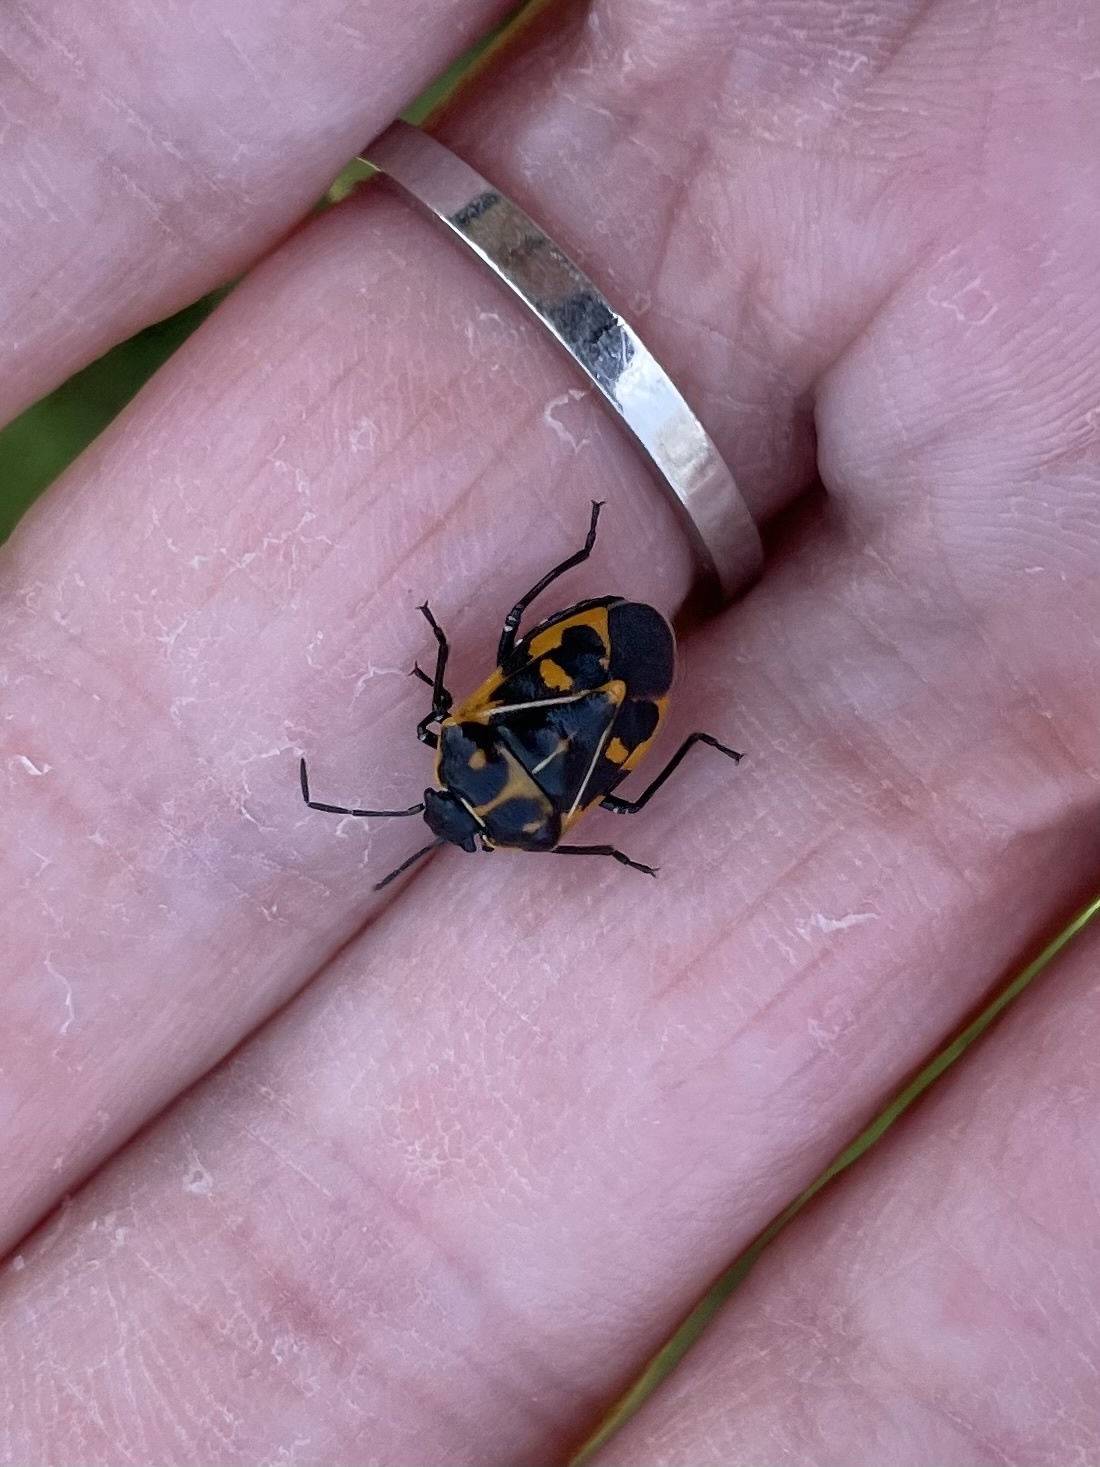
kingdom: Animalia
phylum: Arthropoda
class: Insecta
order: Hemiptera
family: Pentatomidae
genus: Murgantia
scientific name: Murgantia histrionica
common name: Harlequin bug
